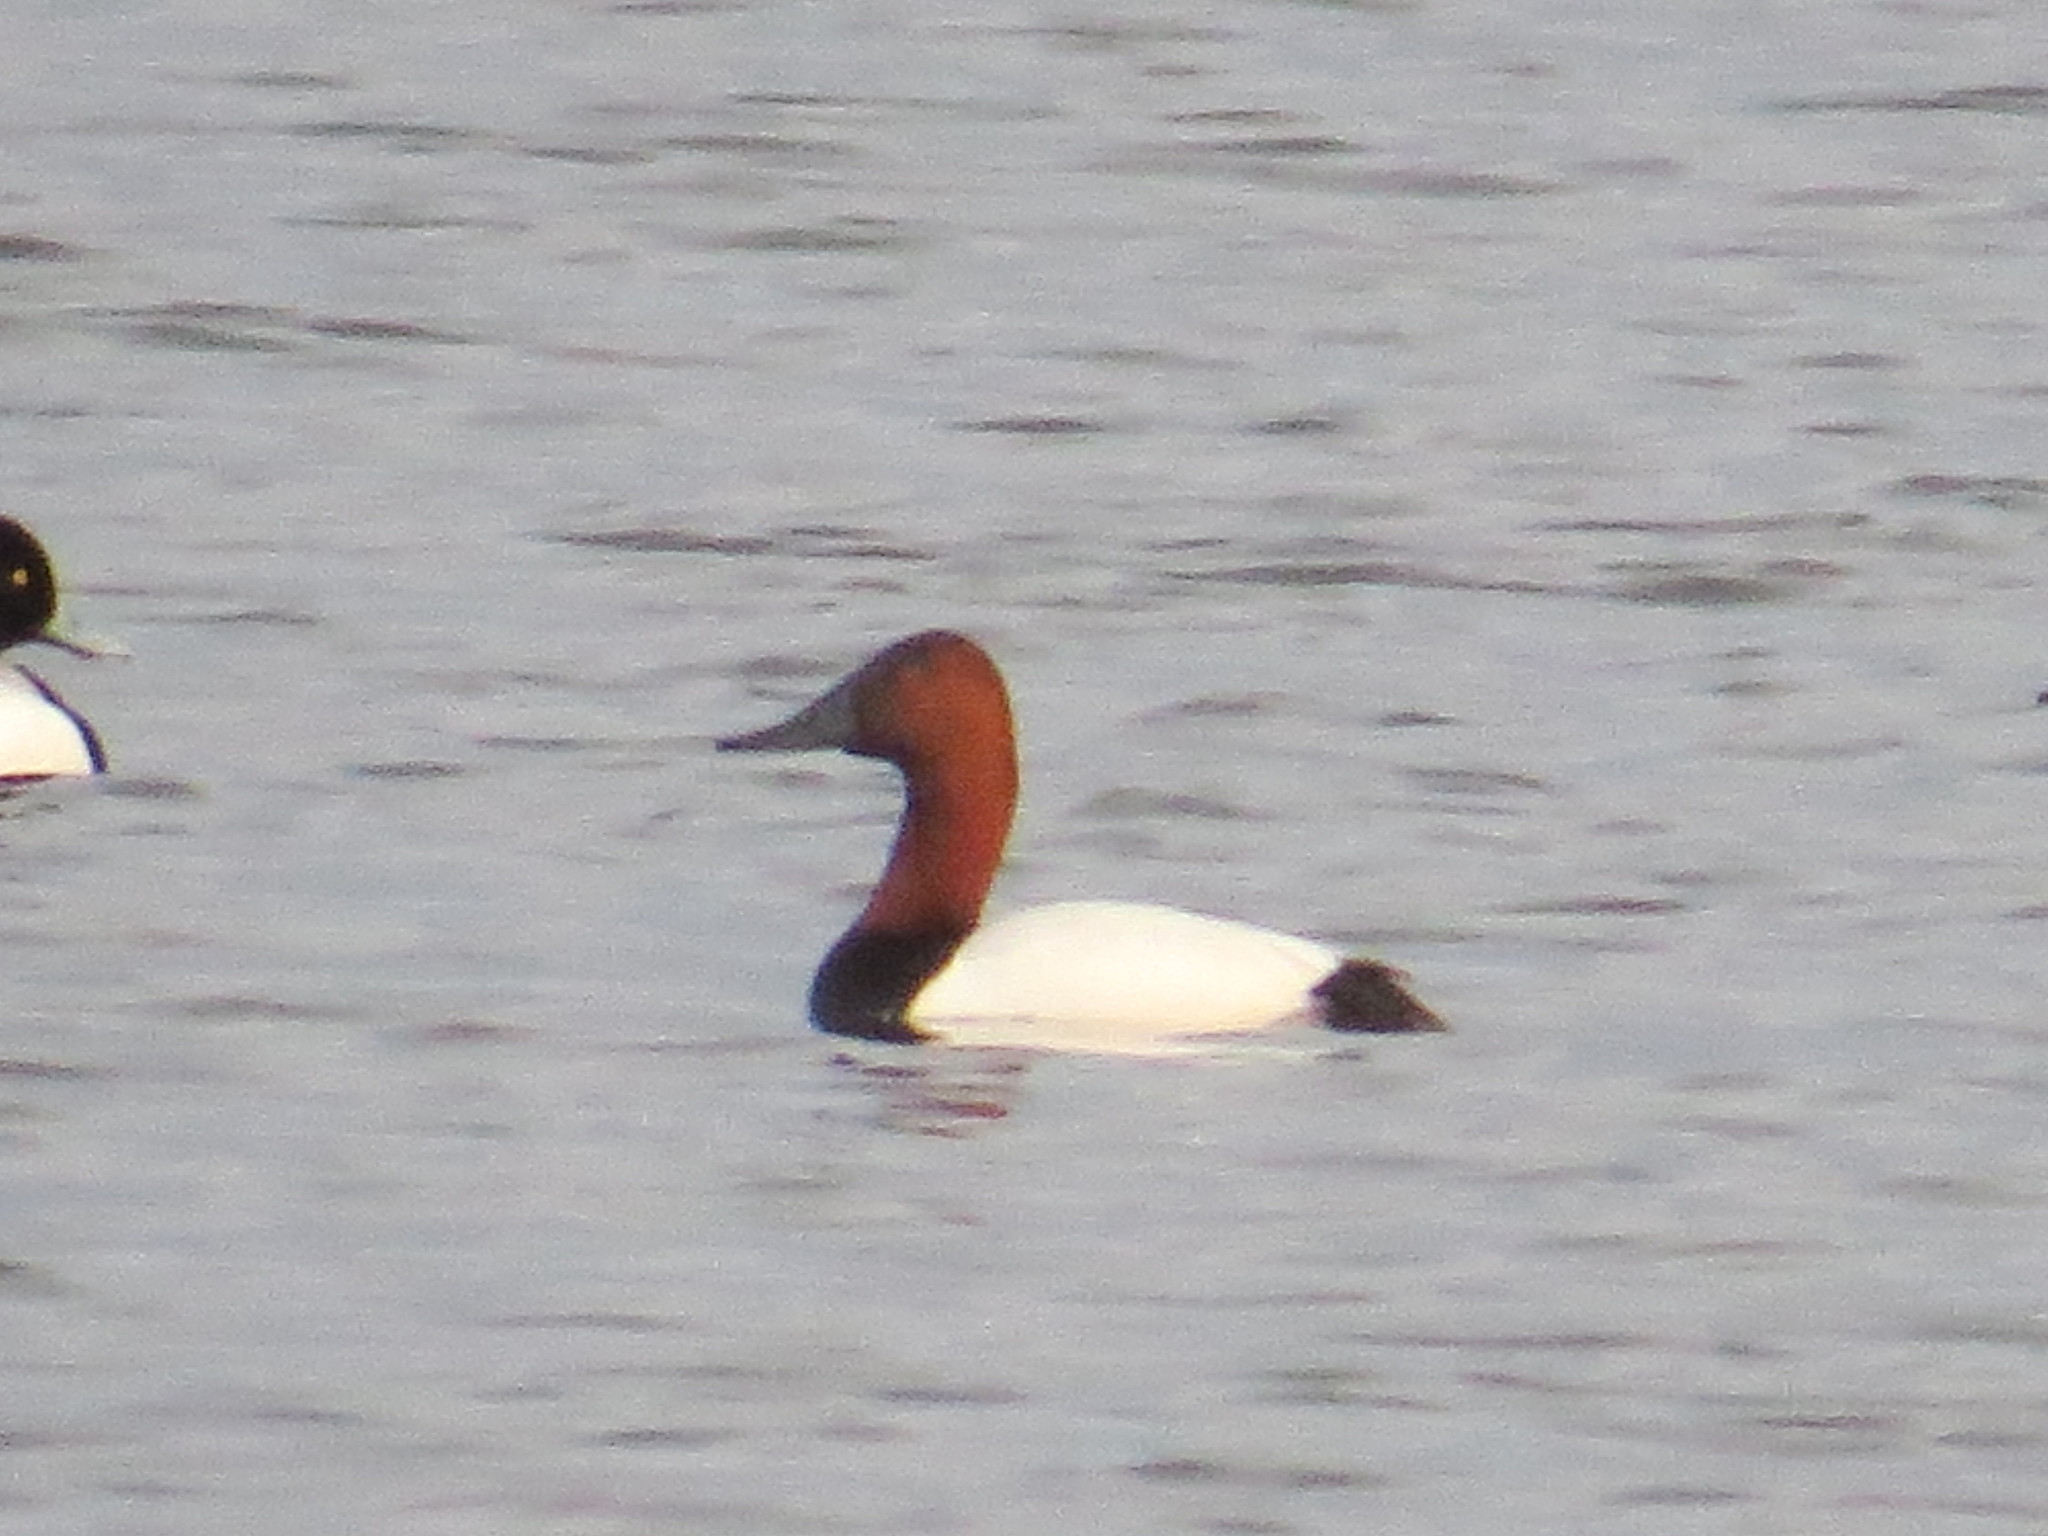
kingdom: Animalia
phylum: Chordata
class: Aves
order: Anseriformes
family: Anatidae
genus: Aythya
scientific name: Aythya valisineria
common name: Canvasback
